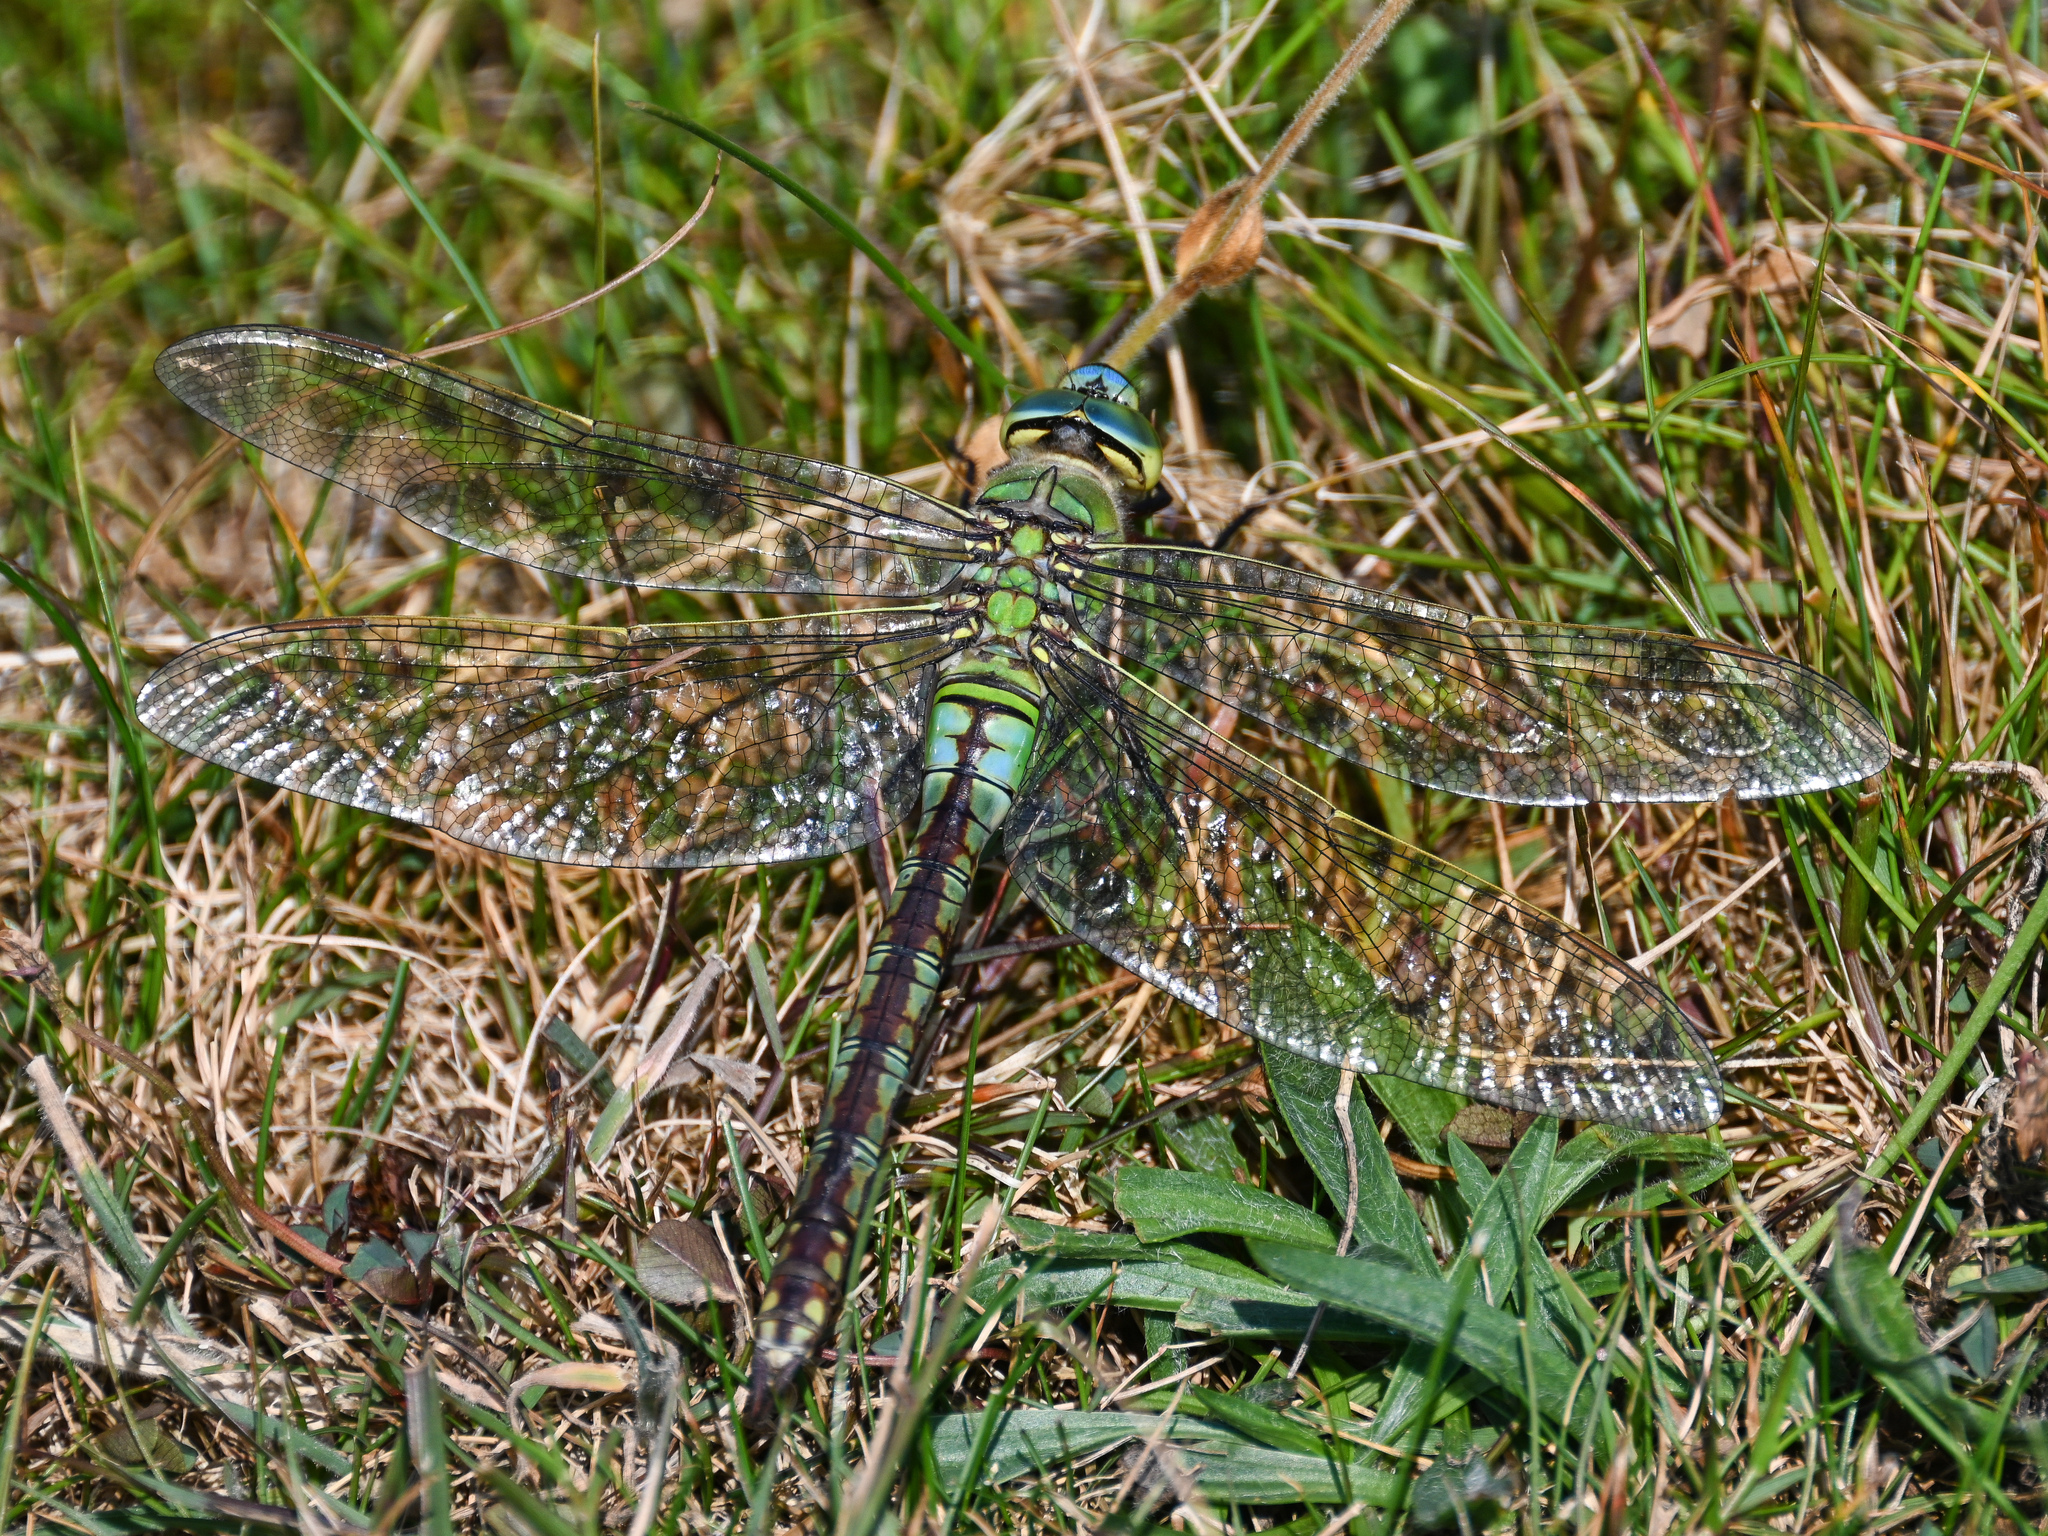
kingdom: Animalia
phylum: Arthropoda
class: Insecta
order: Odonata
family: Aeshnidae
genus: Anax
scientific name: Anax imperator
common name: Emperor dragonfly
